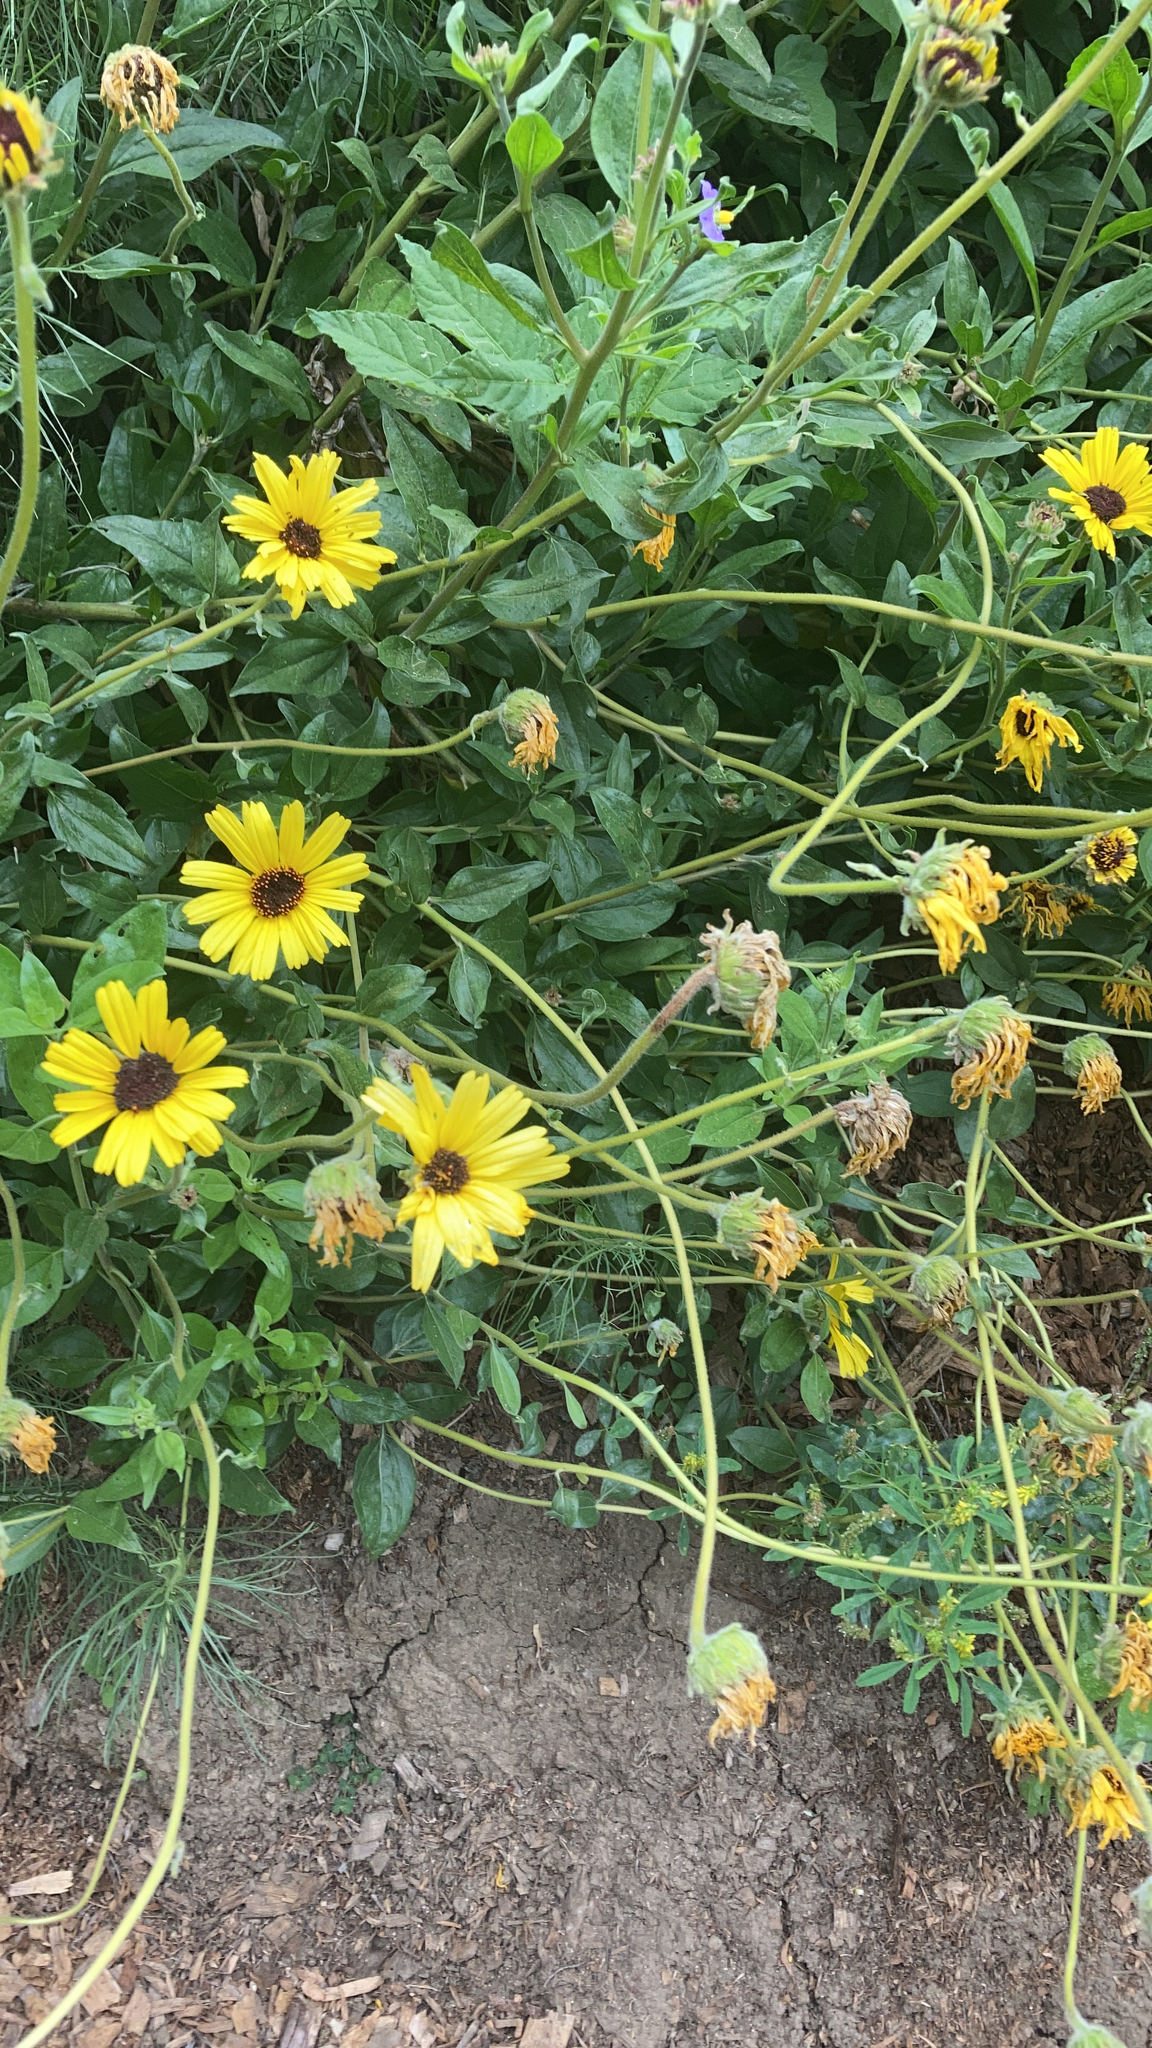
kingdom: Plantae
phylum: Tracheophyta
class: Magnoliopsida
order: Asterales
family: Asteraceae
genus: Encelia
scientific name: Encelia californica
